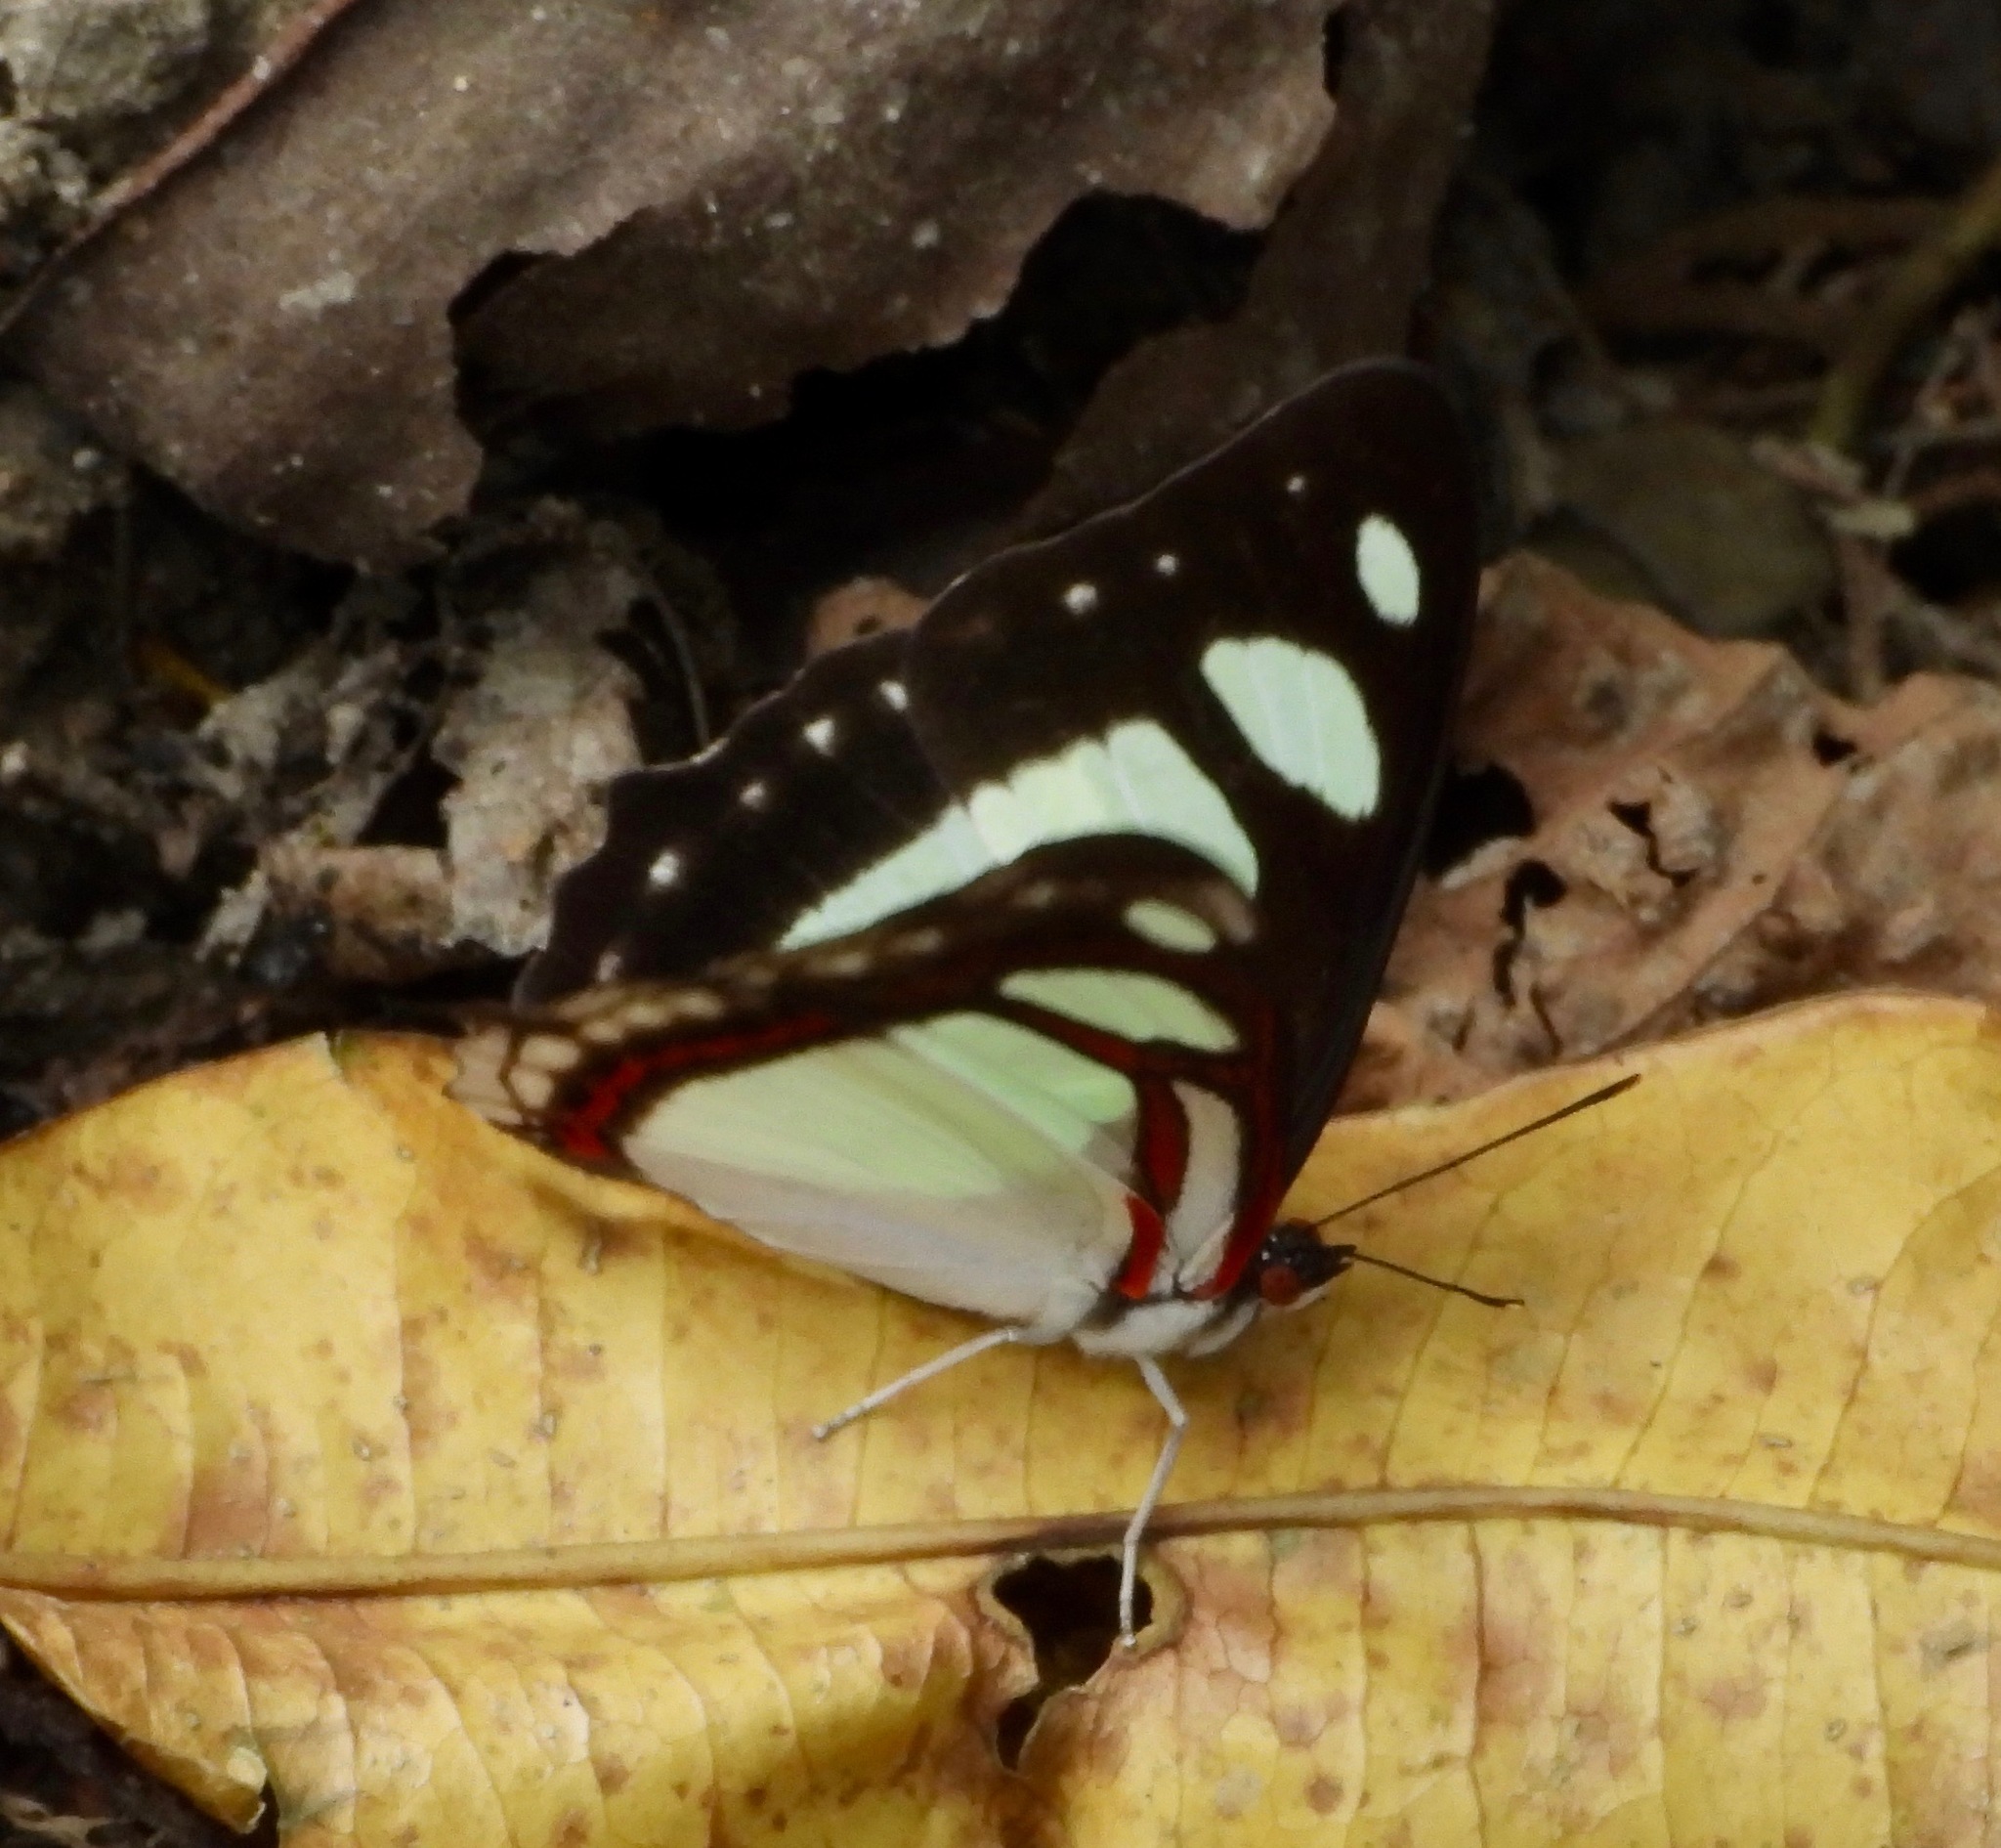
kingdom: Animalia
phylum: Arthropoda
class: Insecta
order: Lepidoptera
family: Nymphalidae
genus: Pyrrhogyra
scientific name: Pyrrhogyra edocla
